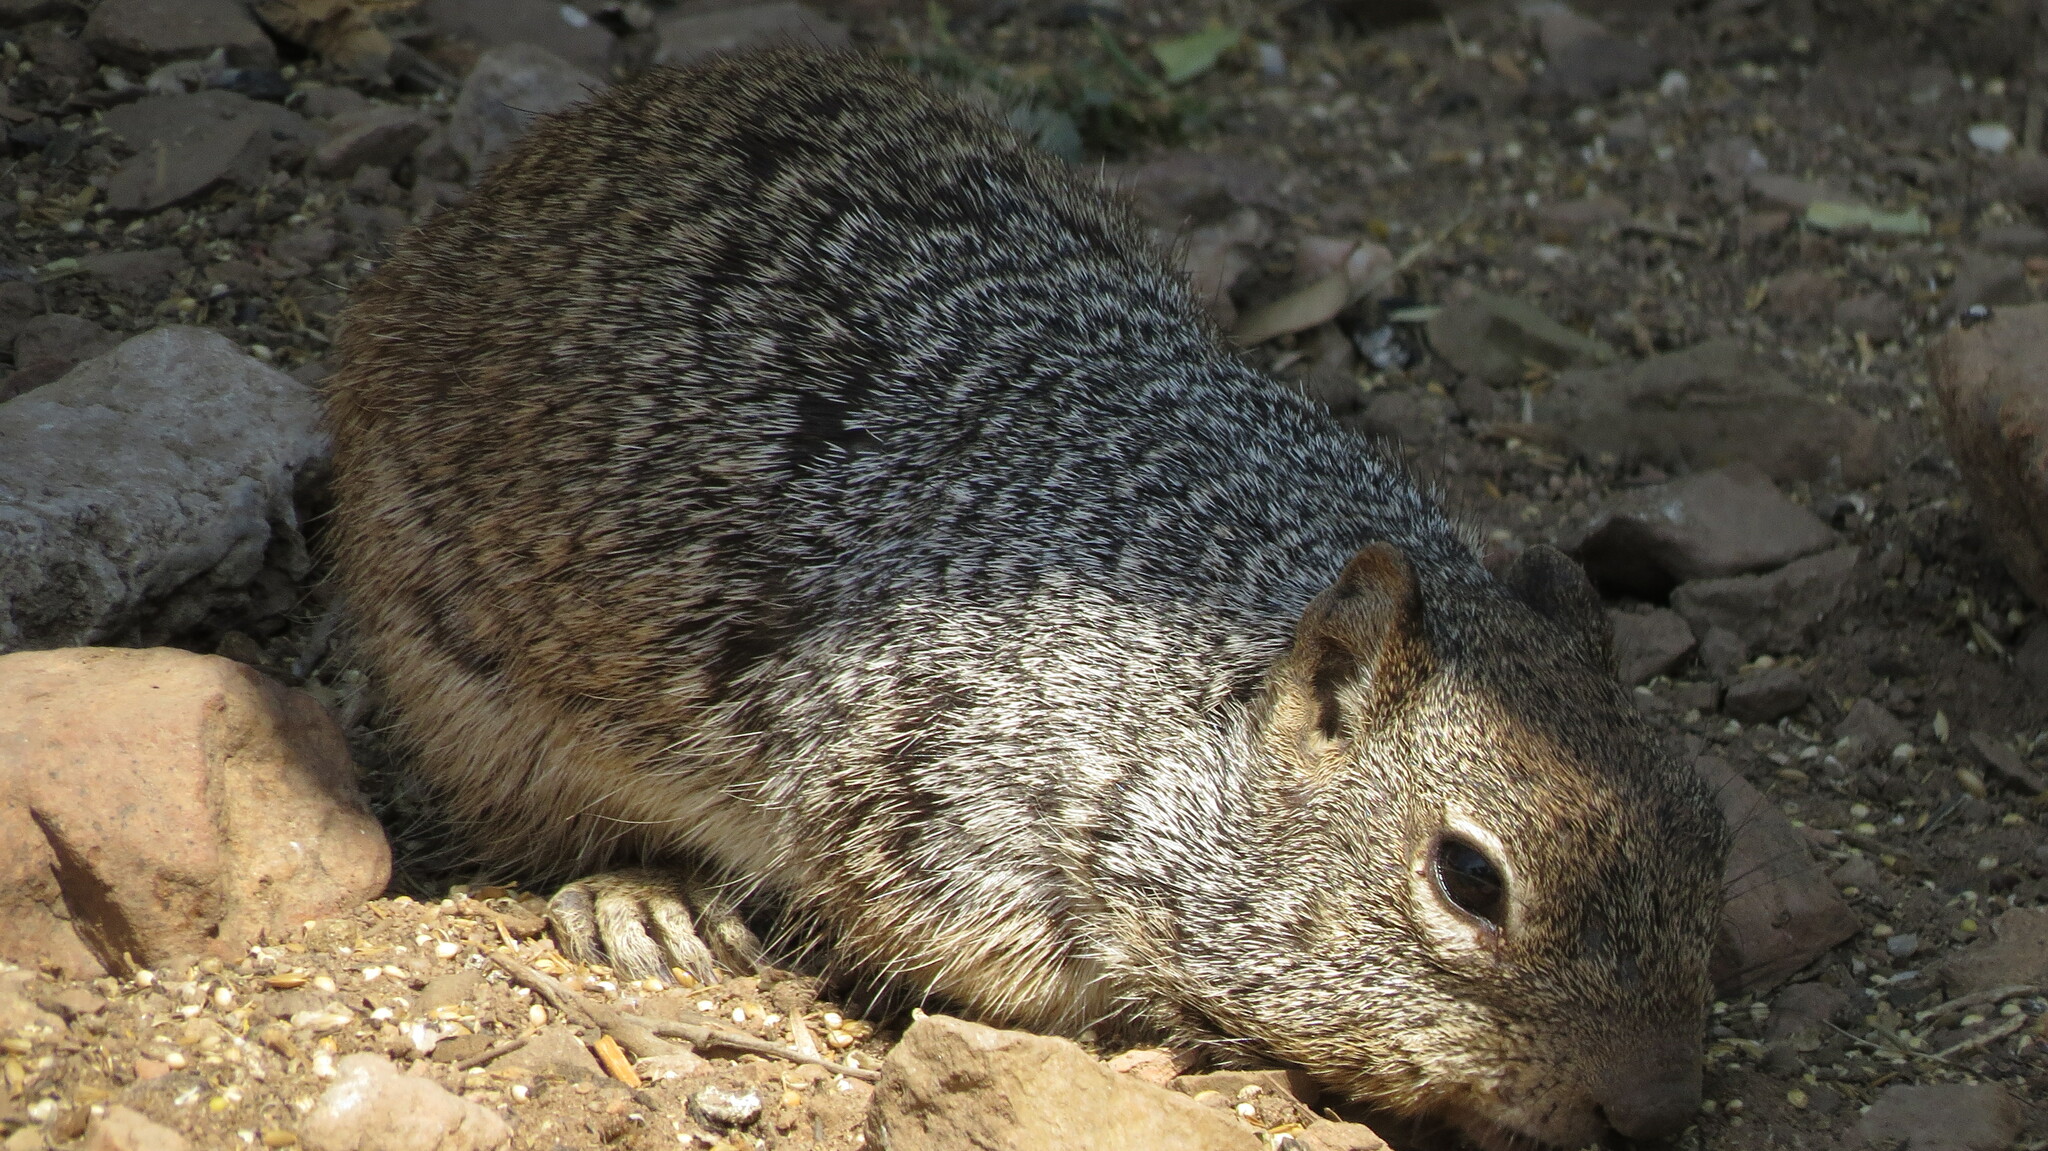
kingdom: Animalia
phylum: Chordata
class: Mammalia
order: Rodentia
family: Sciuridae
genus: Otospermophilus
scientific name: Otospermophilus variegatus
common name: Rock squirrel
